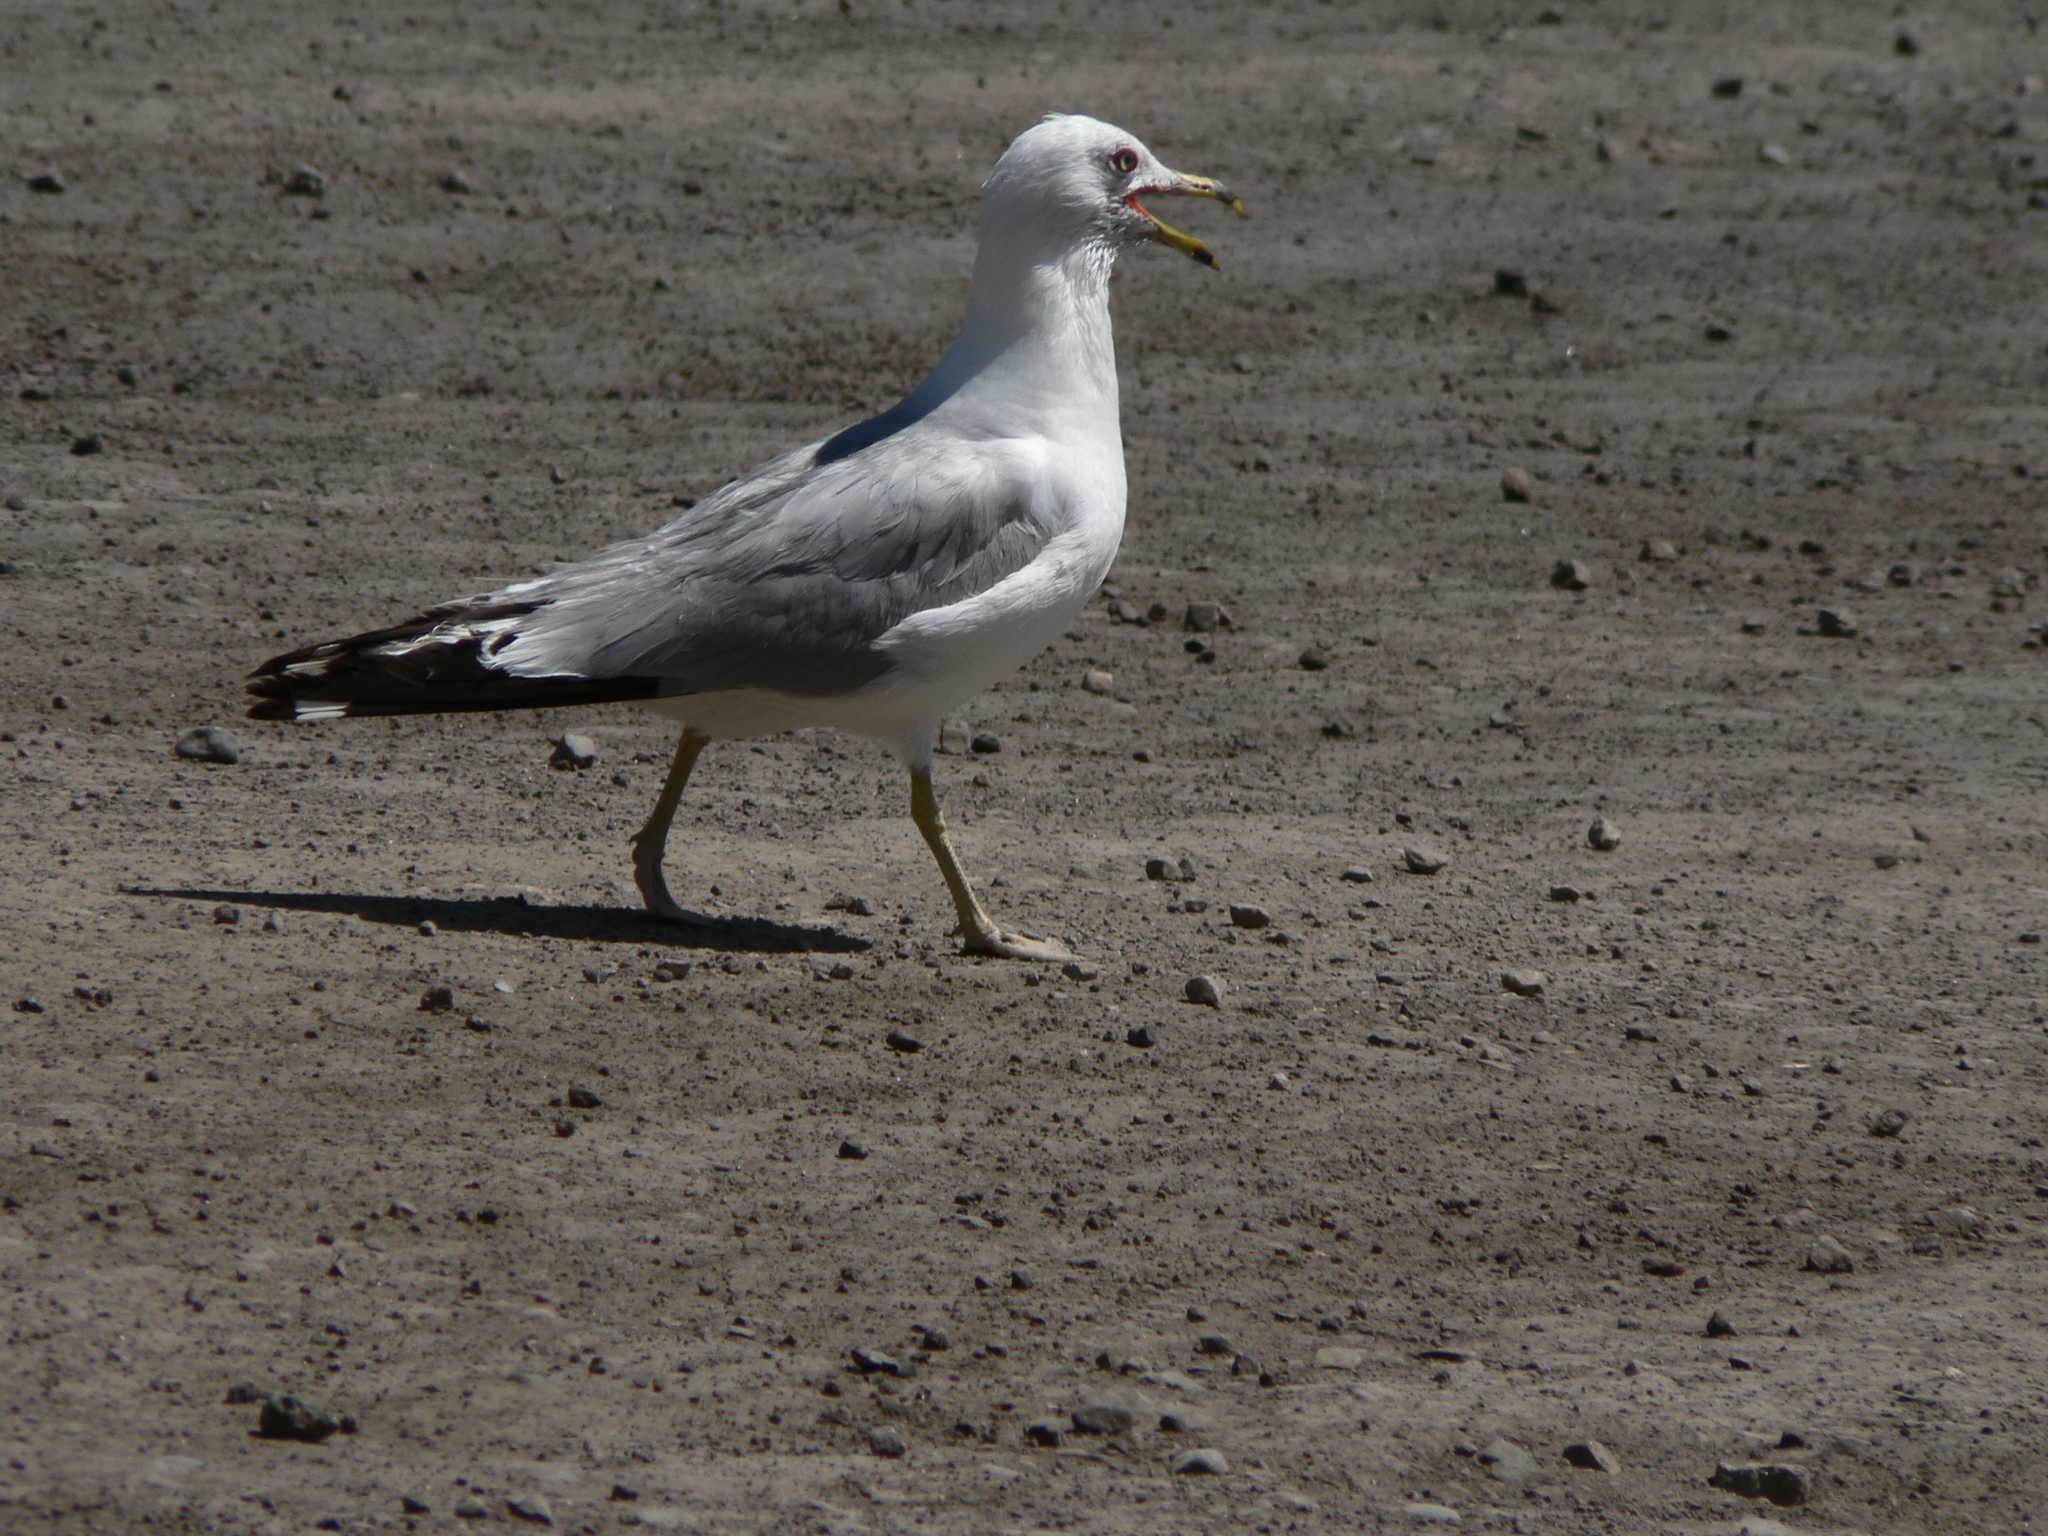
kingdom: Animalia
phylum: Chordata
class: Aves
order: Charadriiformes
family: Laridae
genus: Larus
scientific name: Larus delawarensis
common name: Ring-billed gull
